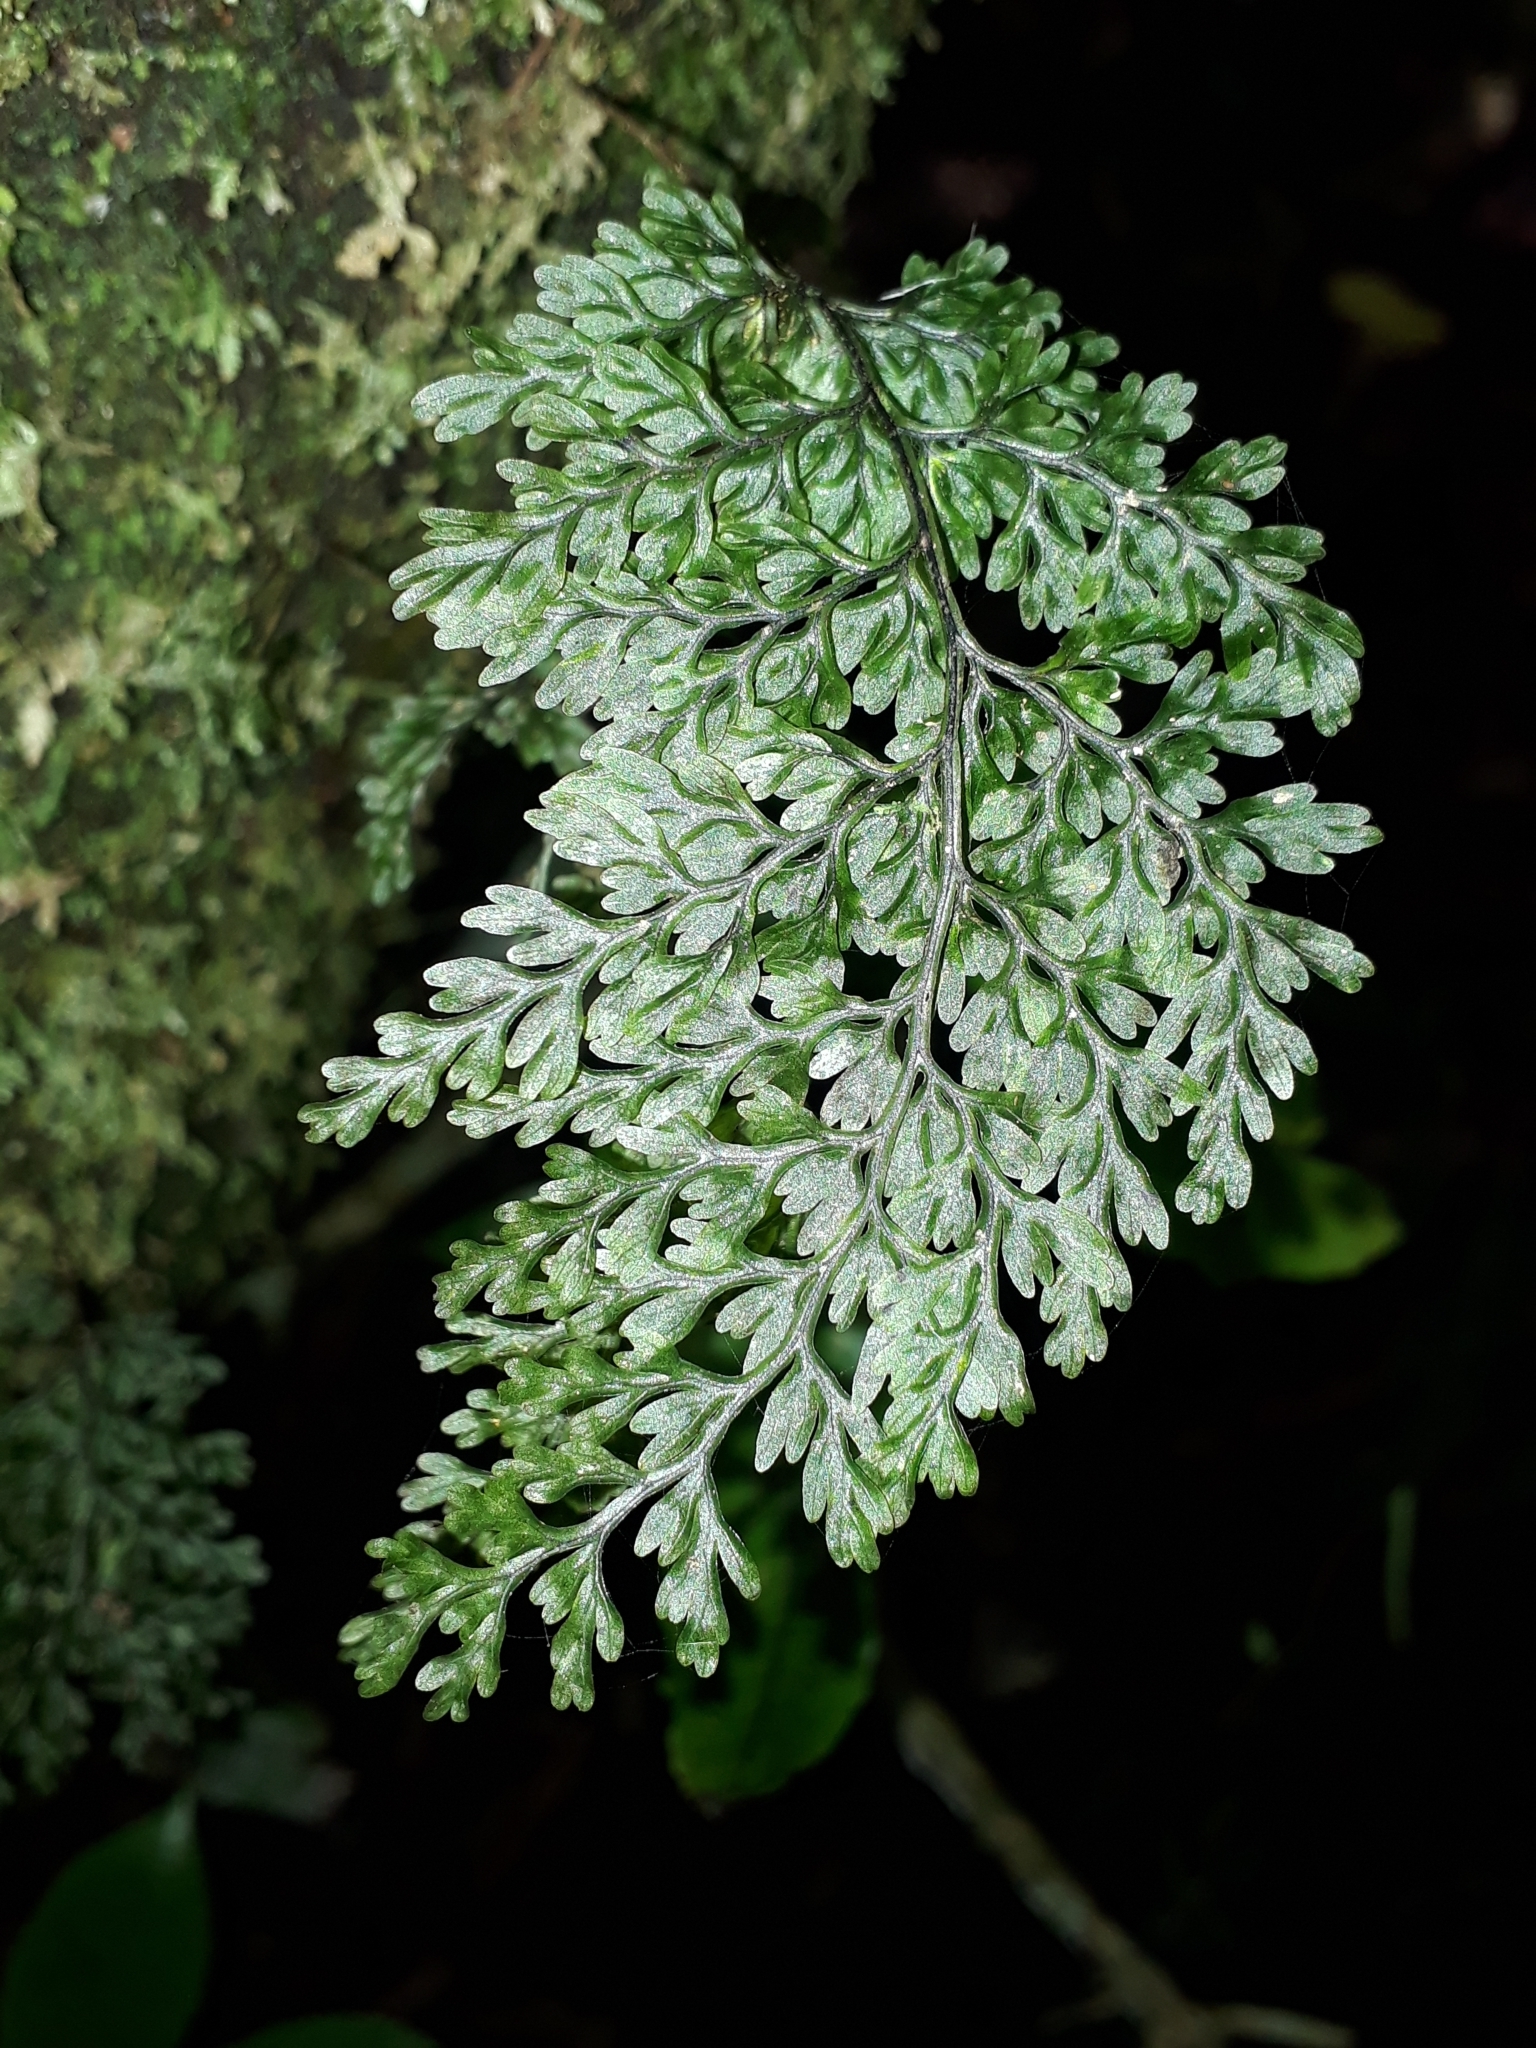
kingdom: Plantae
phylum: Tracheophyta
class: Polypodiopsida
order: Hymenophyllales
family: Hymenophyllaceae
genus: Hymenophyllum
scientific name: Hymenophyllum sanguinolentum
